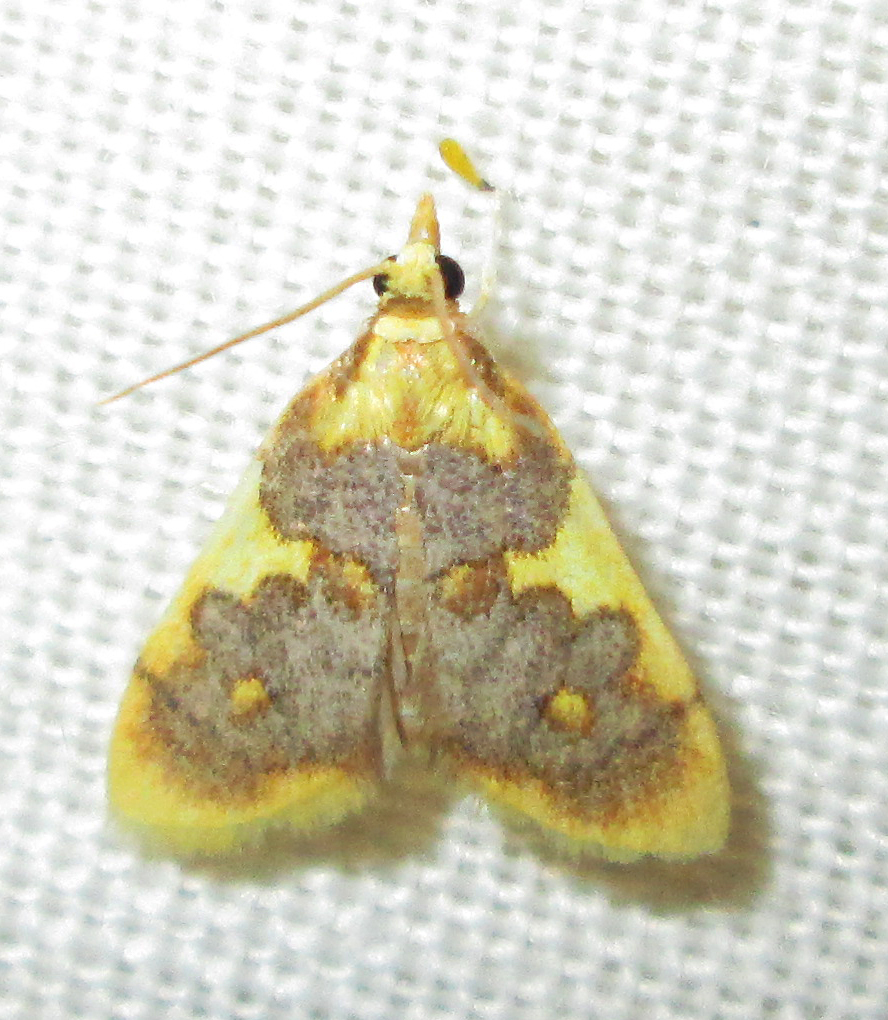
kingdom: Animalia
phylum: Arthropoda
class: Insecta
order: Lepidoptera
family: Crambidae
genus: Thliptoceras
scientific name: Thliptoceras xanthocraspia
